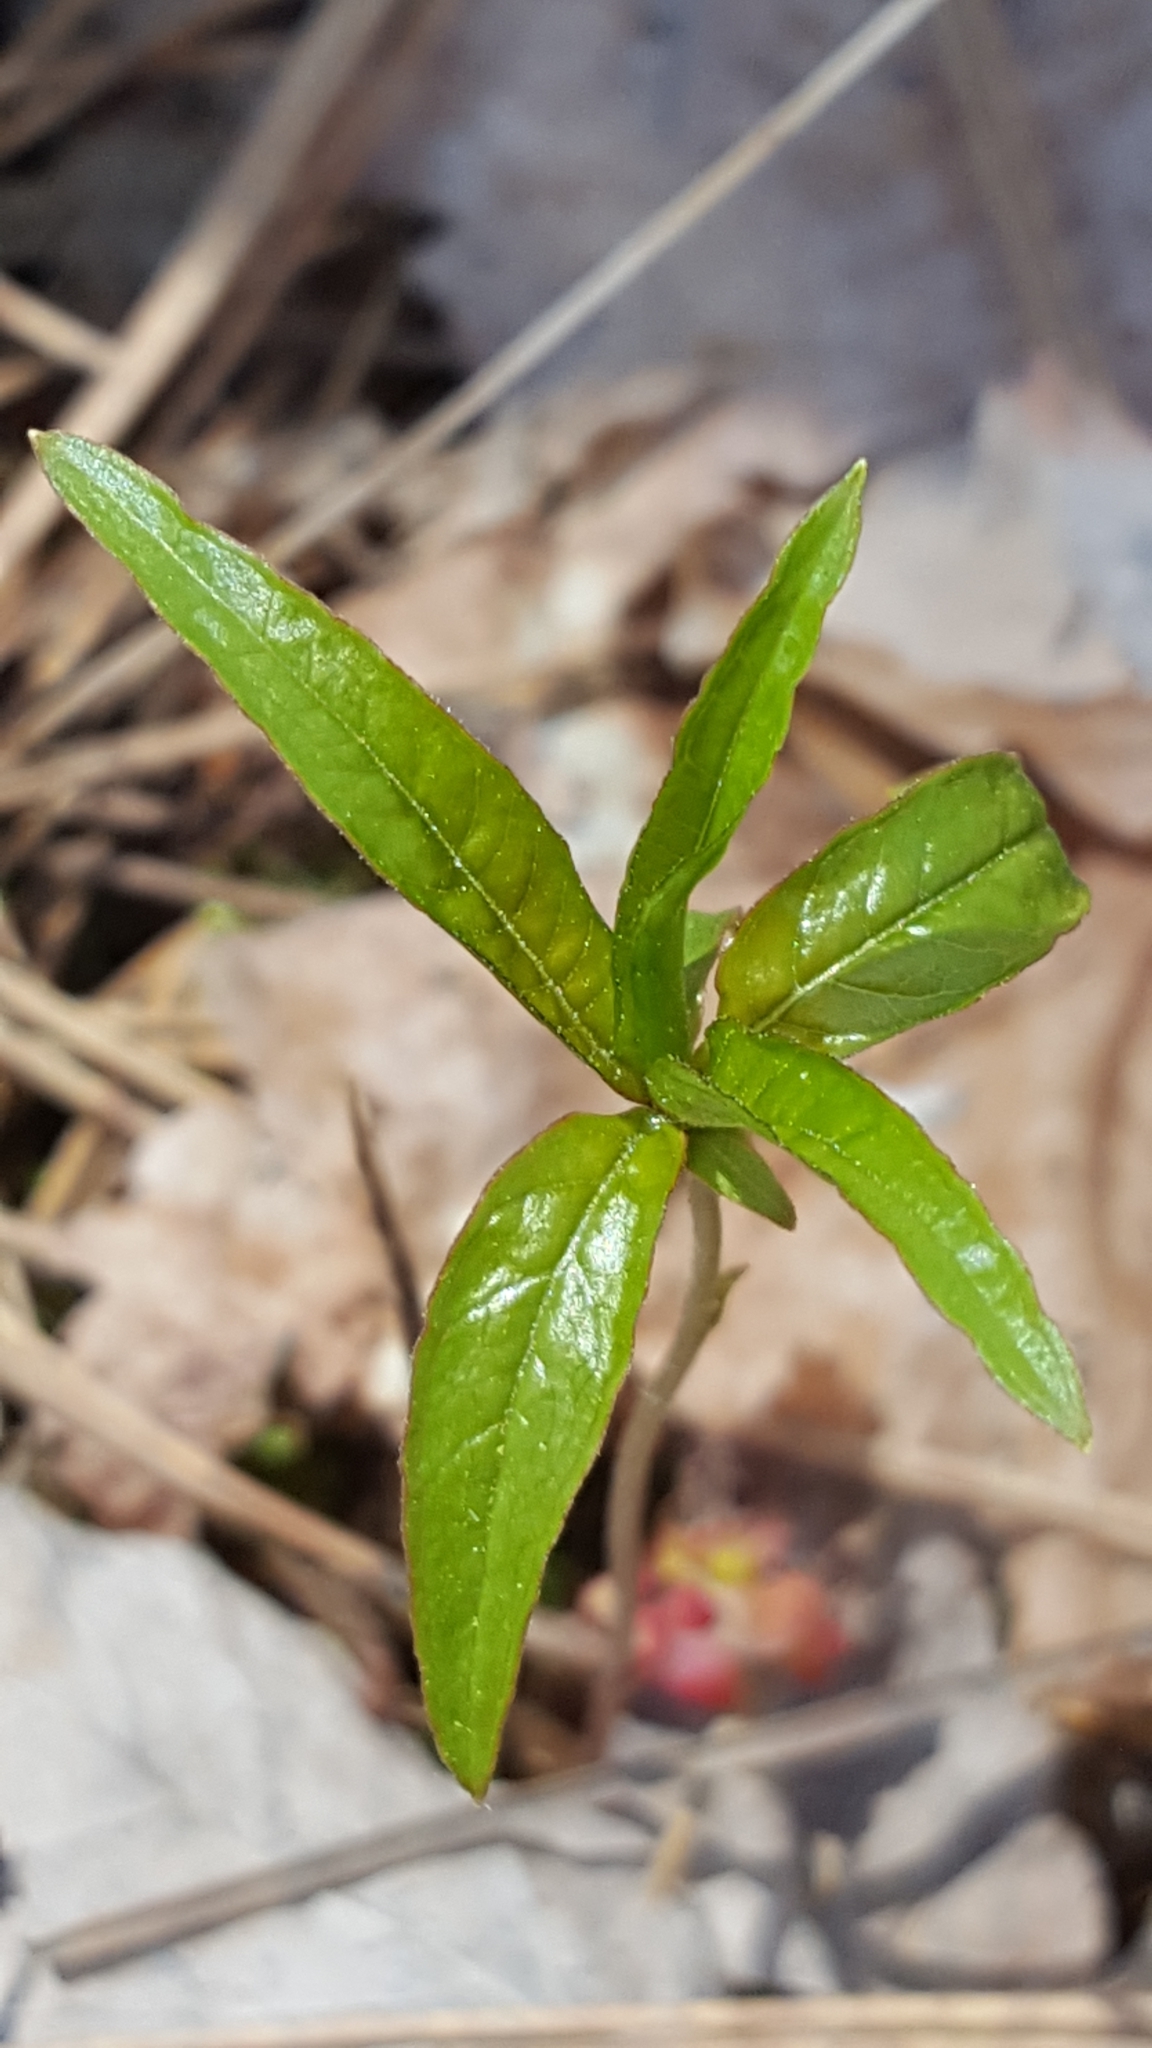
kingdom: Plantae
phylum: Tracheophyta
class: Magnoliopsida
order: Ericales
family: Primulaceae
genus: Lysimachia
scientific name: Lysimachia borealis
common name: American starflower
